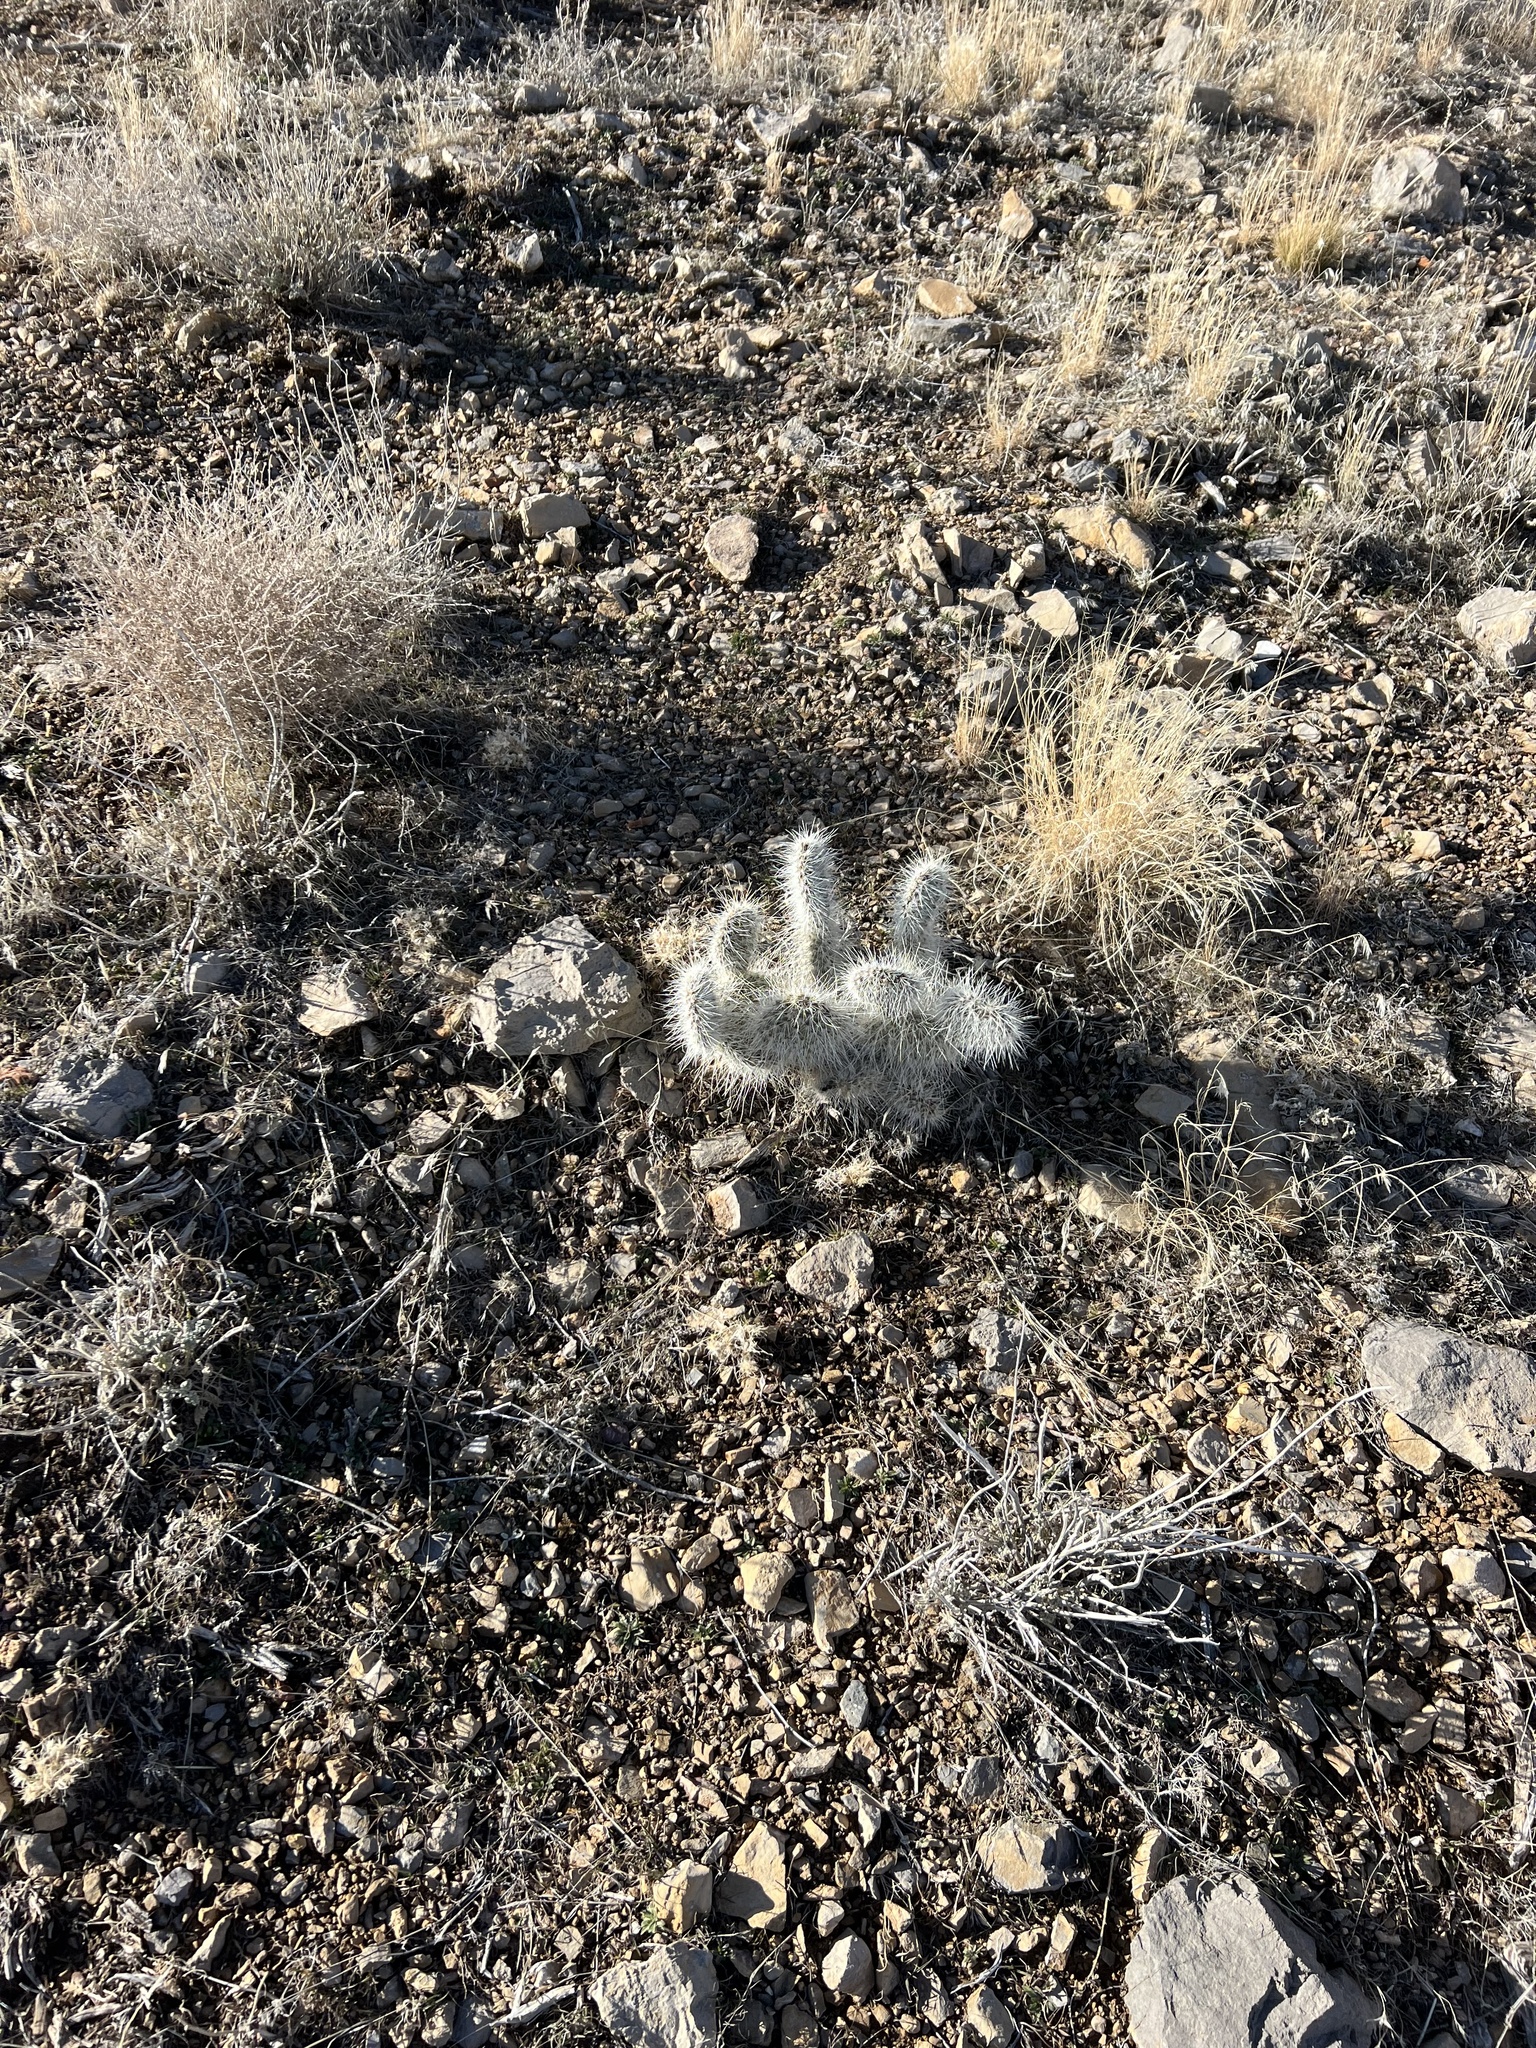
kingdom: Plantae
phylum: Tracheophyta
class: Magnoliopsida
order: Caryophyllales
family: Cactaceae
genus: Opuntia
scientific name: Opuntia polyacantha
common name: Plains prickly-pear
